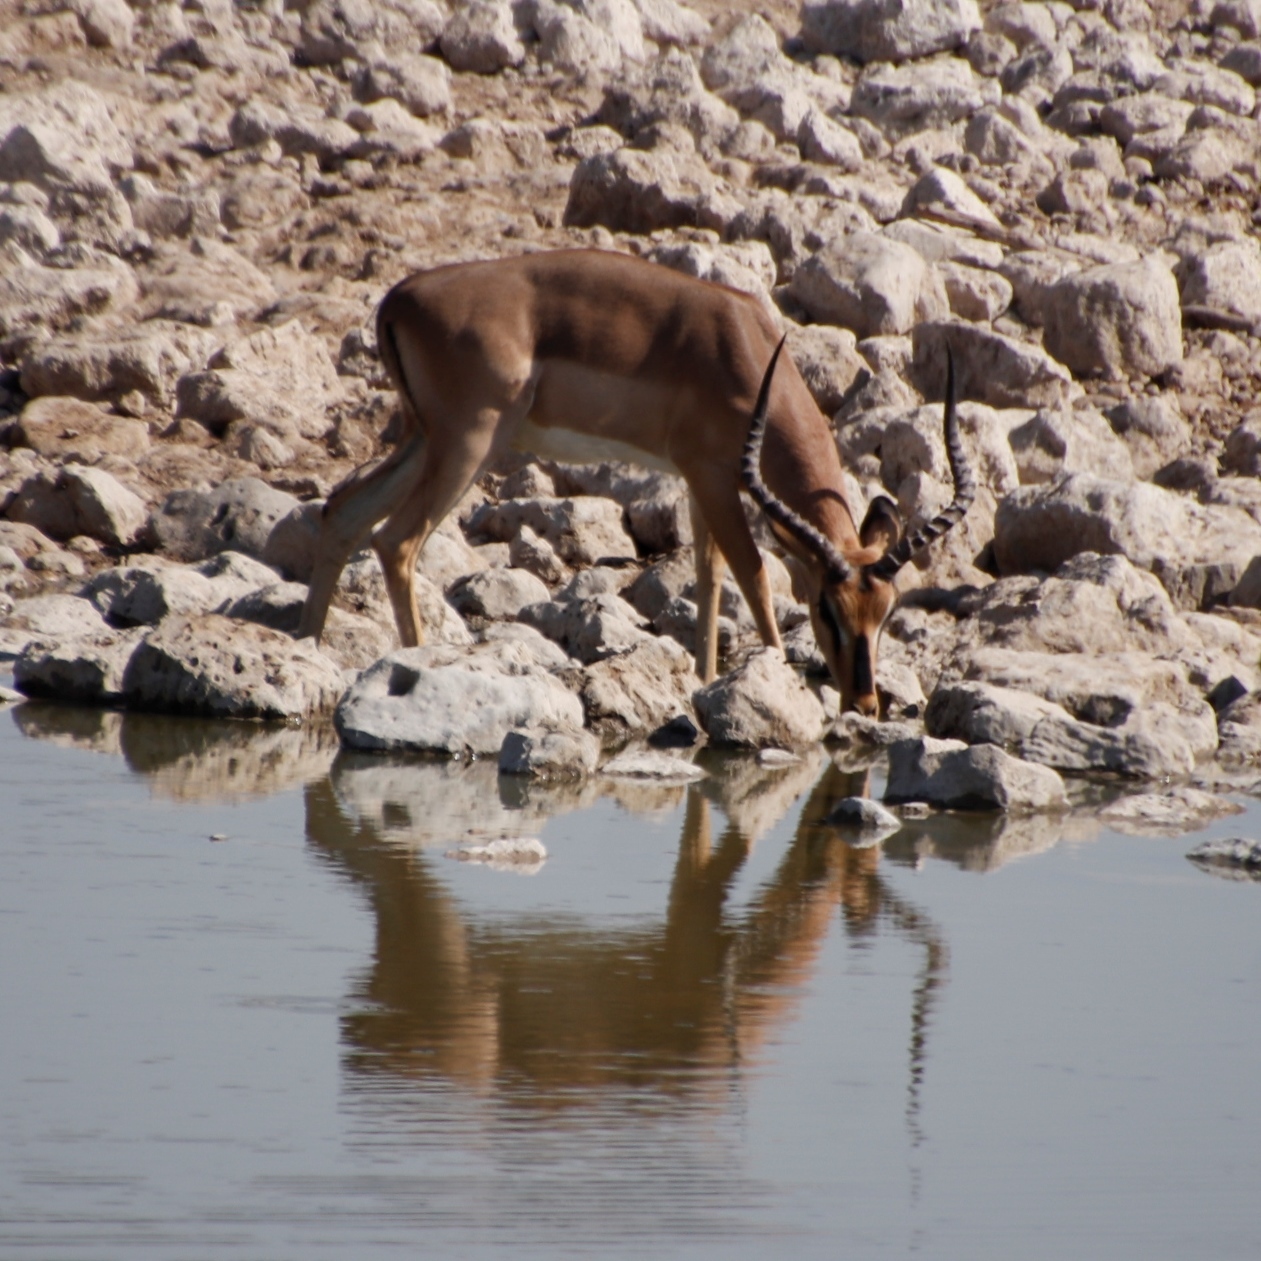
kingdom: Animalia
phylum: Chordata
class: Mammalia
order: Artiodactyla
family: Bovidae
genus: Aepyceros
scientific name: Aepyceros melampus
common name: Impala
